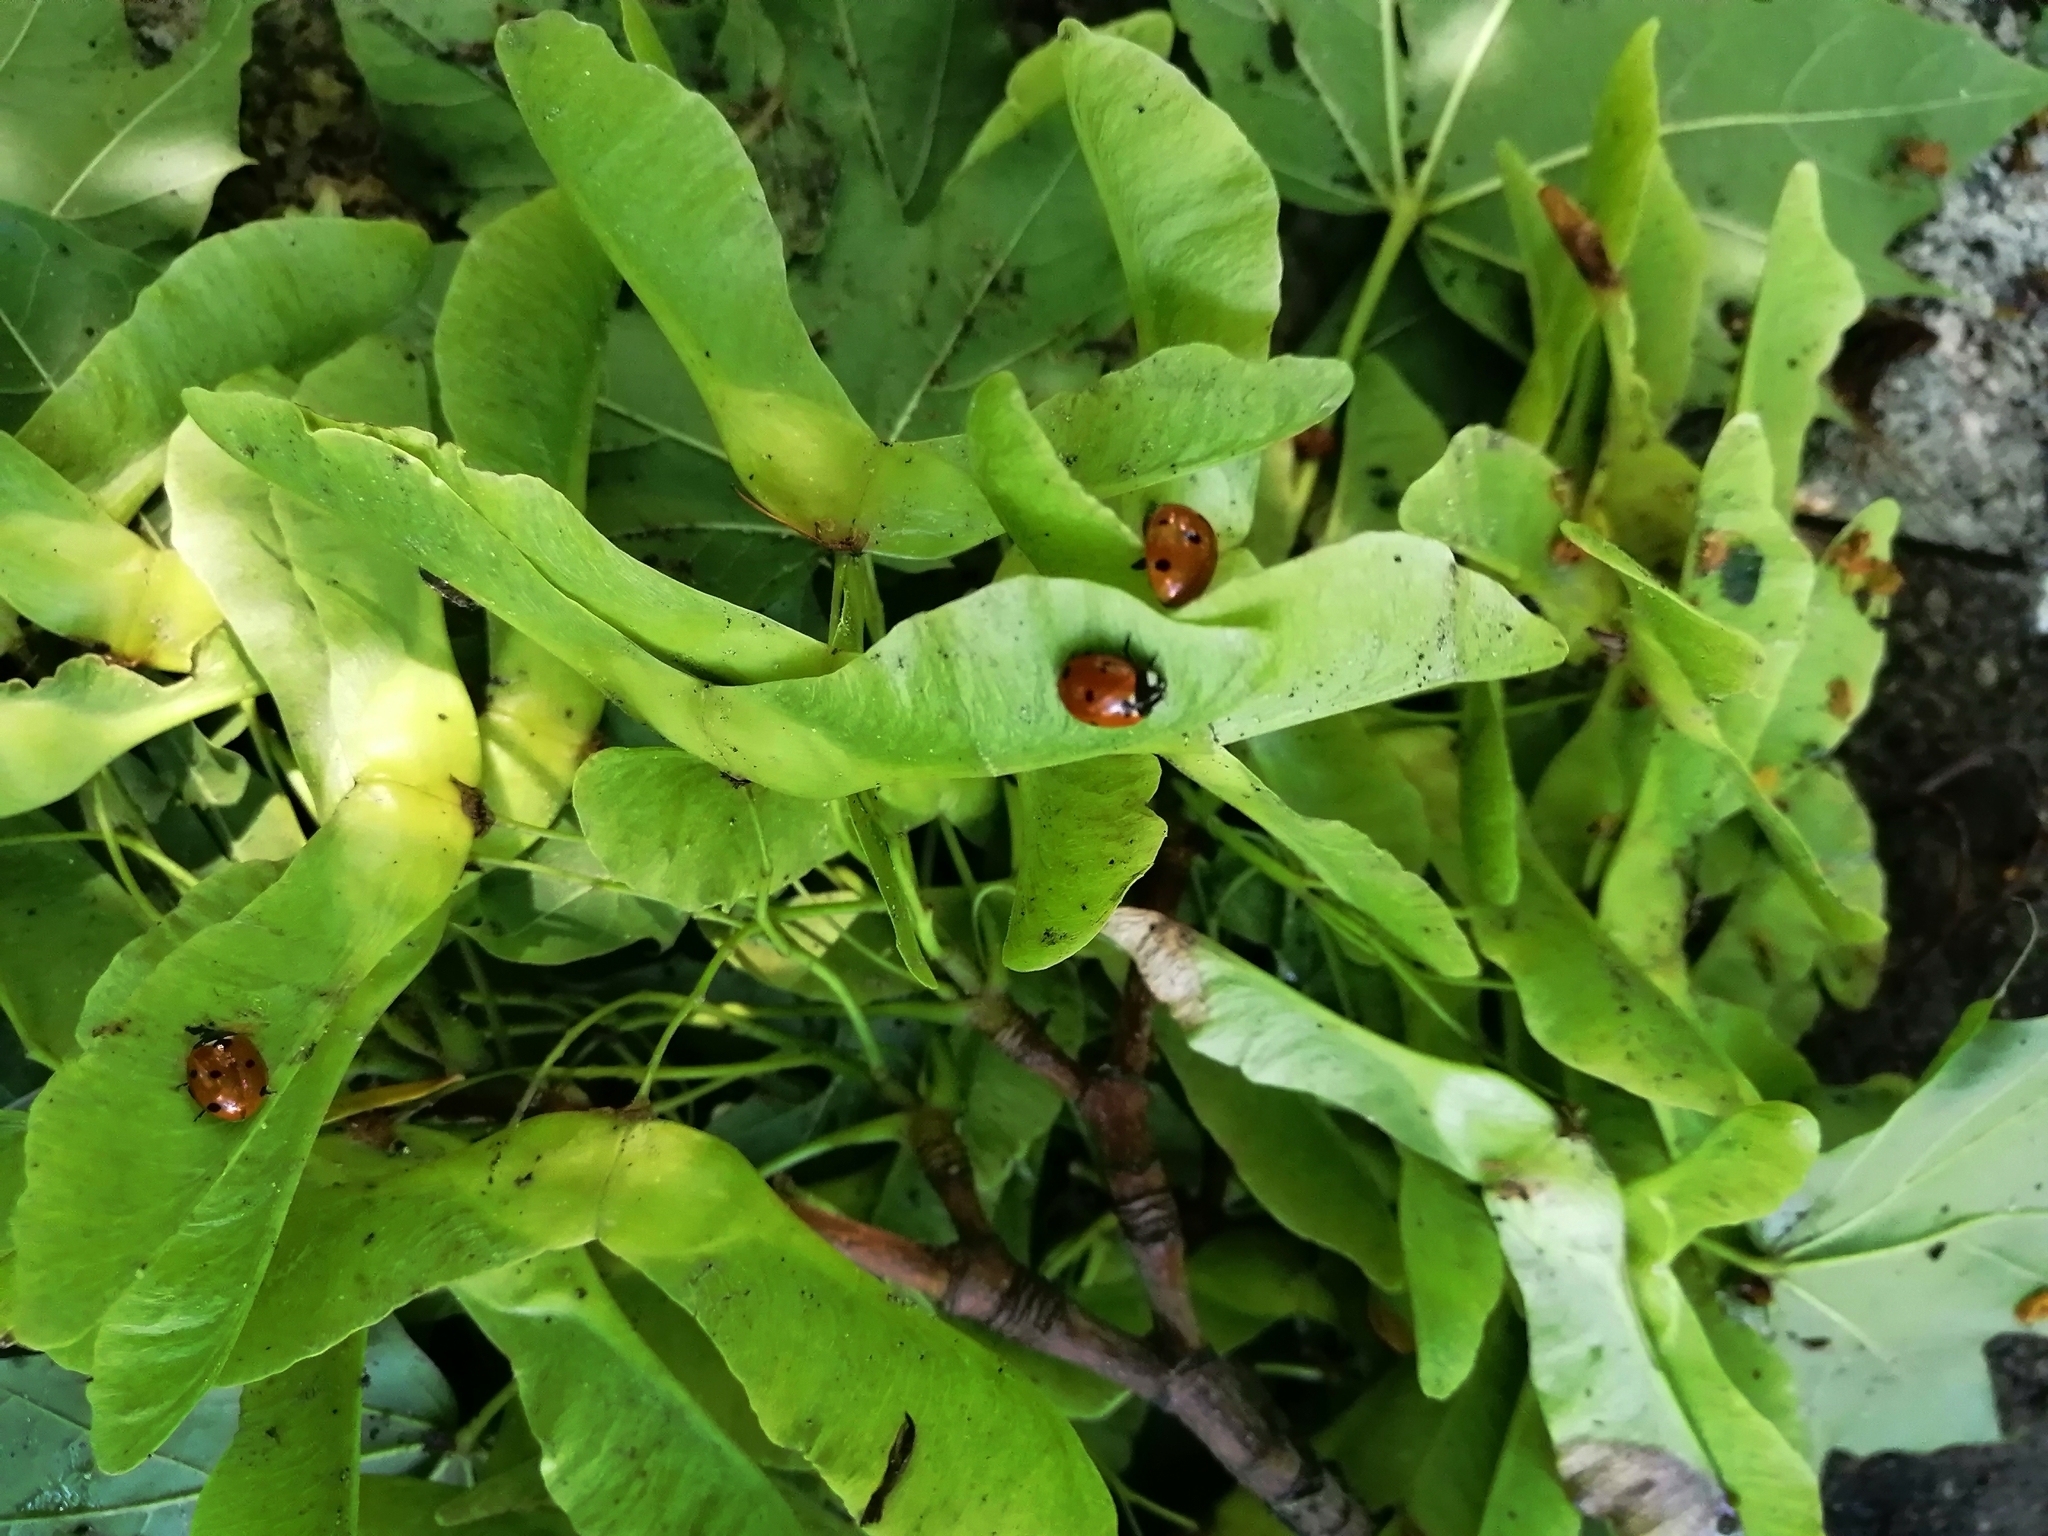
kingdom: Animalia
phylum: Arthropoda
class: Insecta
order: Coleoptera
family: Coccinellidae
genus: Coccinella
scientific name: Coccinella septempunctata
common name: Sevenspotted lady beetle
